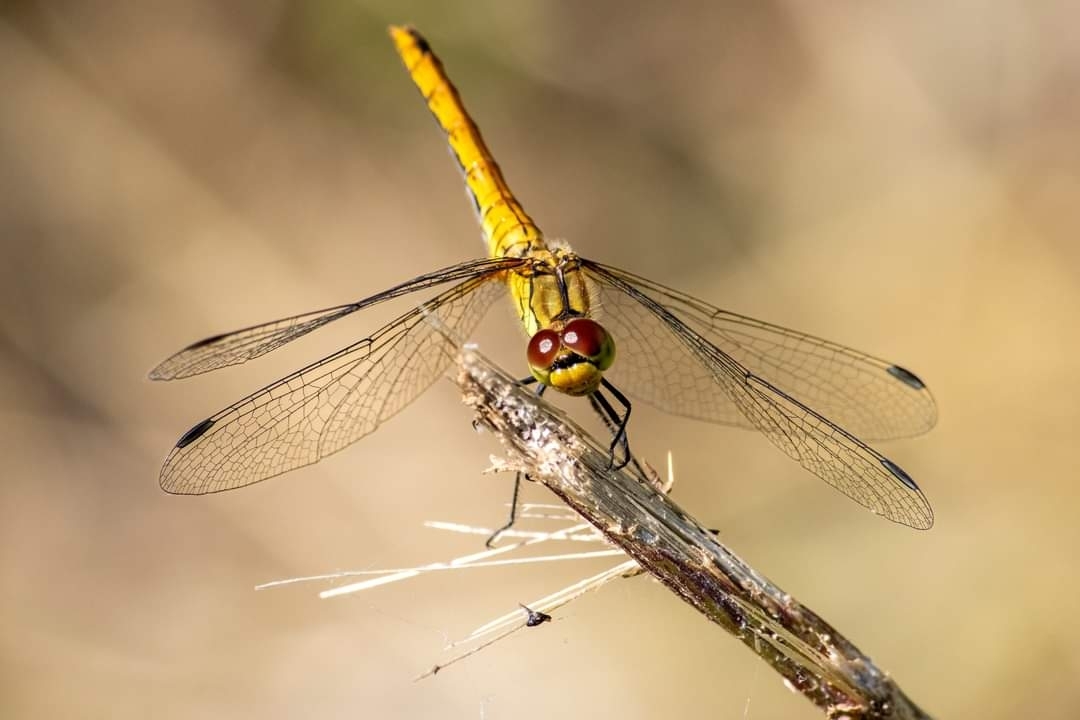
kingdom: Animalia
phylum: Arthropoda
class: Insecta
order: Odonata
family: Libellulidae
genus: Sympetrum
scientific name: Sympetrum sanguineum
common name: Ruddy darter
